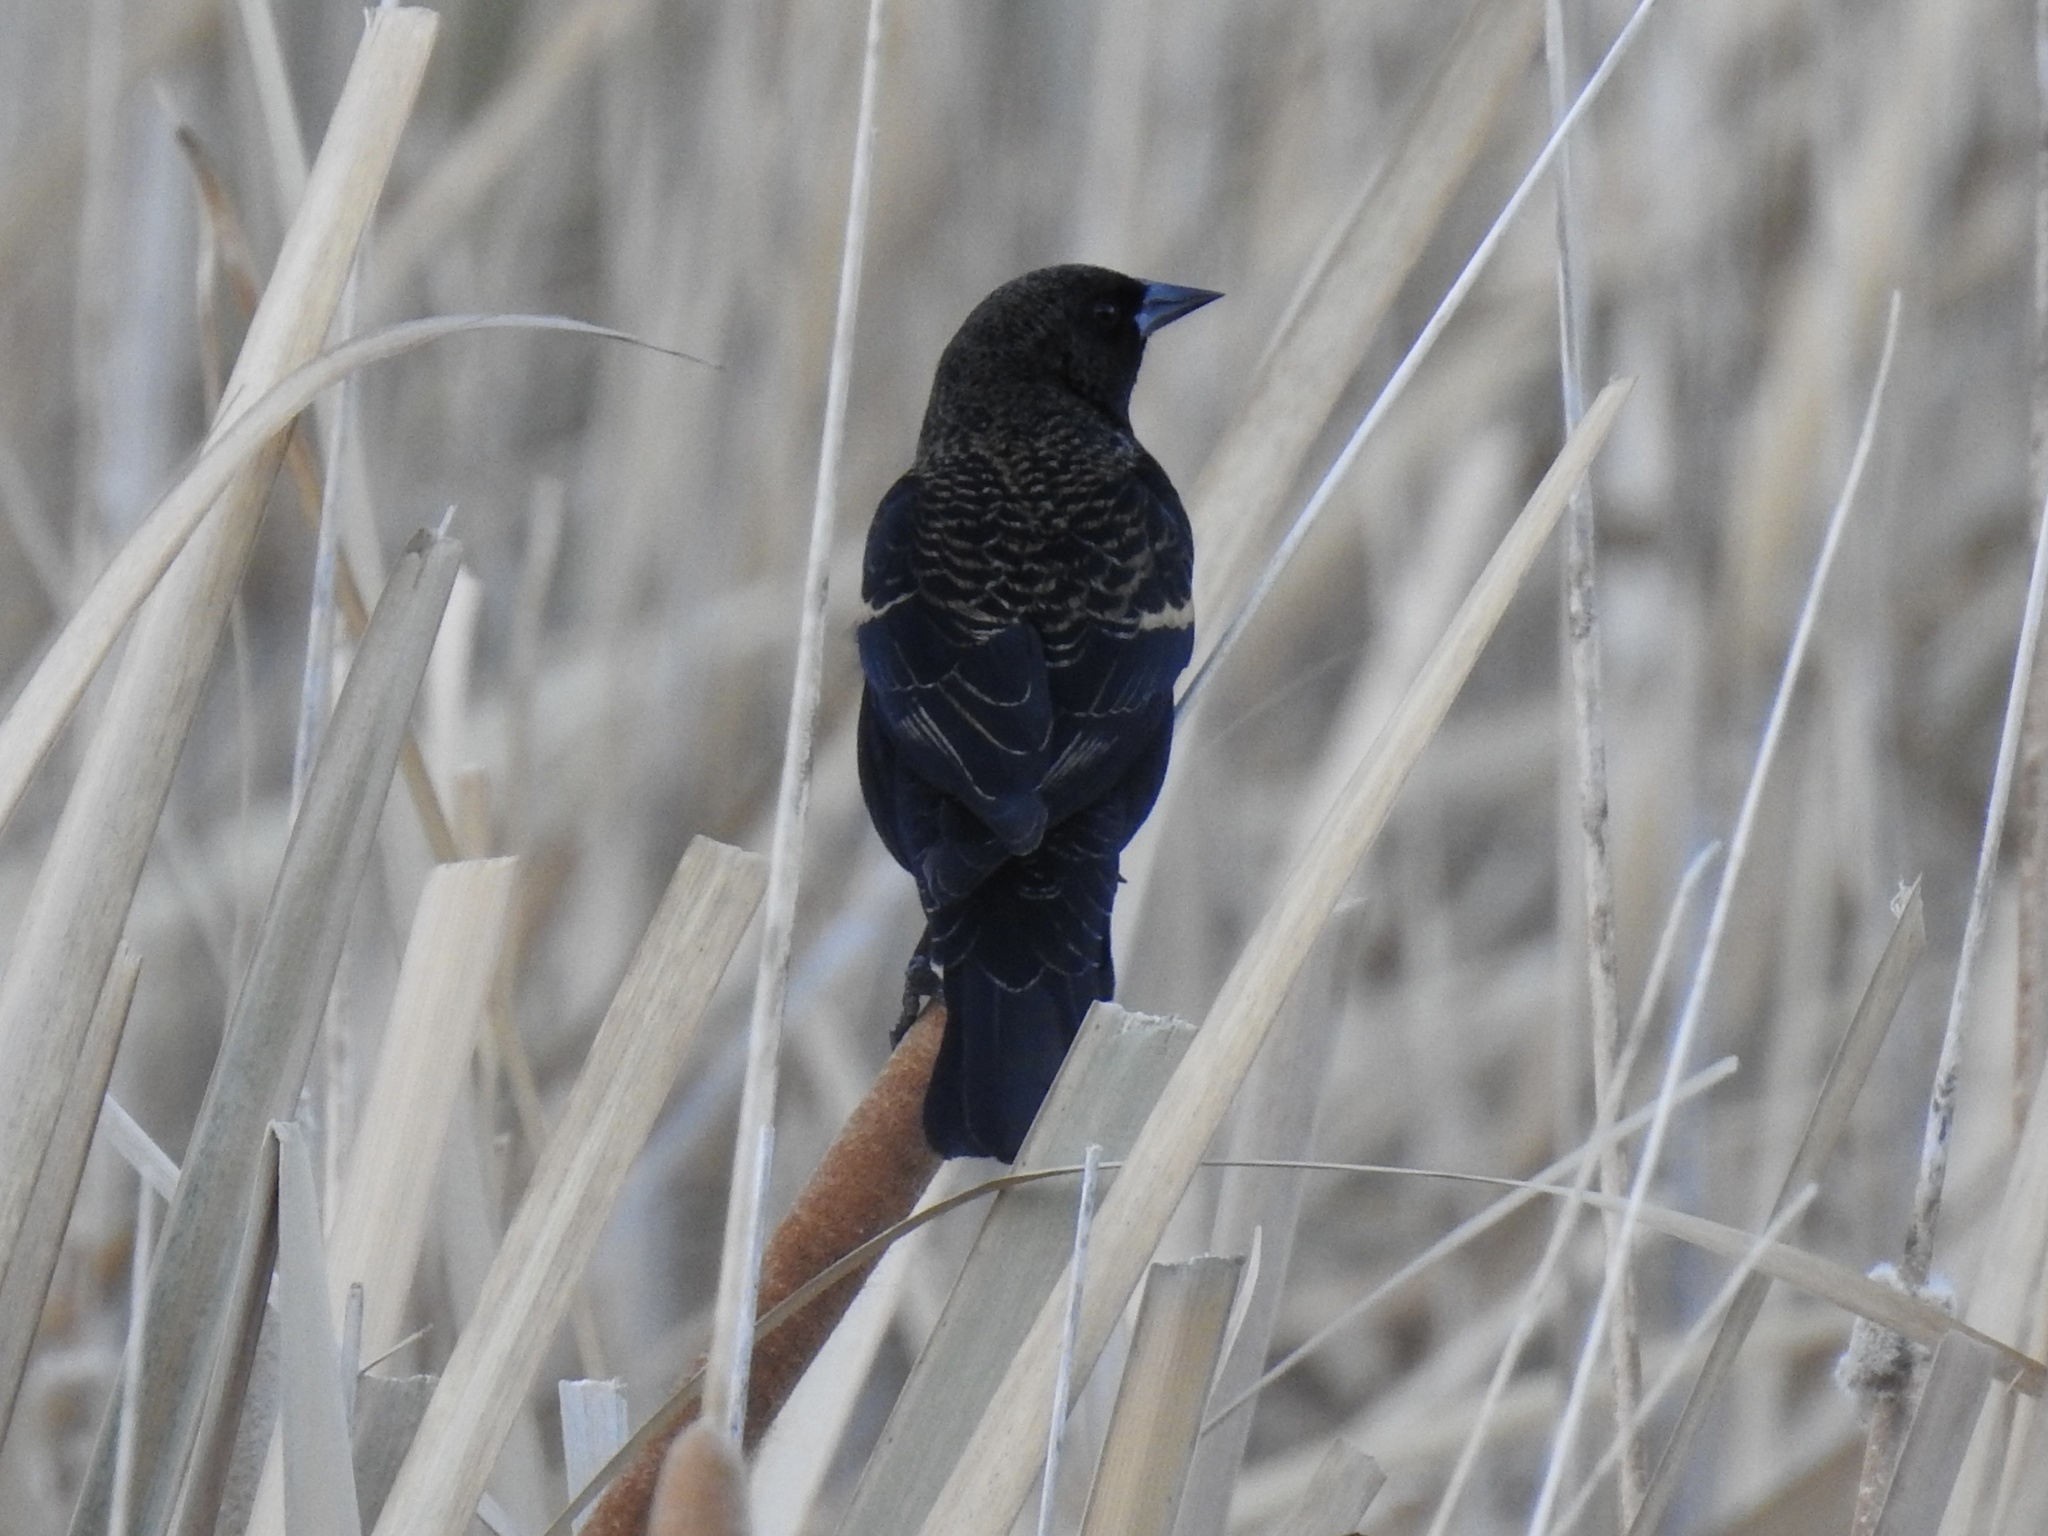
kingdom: Animalia
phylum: Chordata
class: Aves
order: Passeriformes
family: Icteridae
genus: Agelaius
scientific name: Agelaius phoeniceus
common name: Red-winged blackbird
